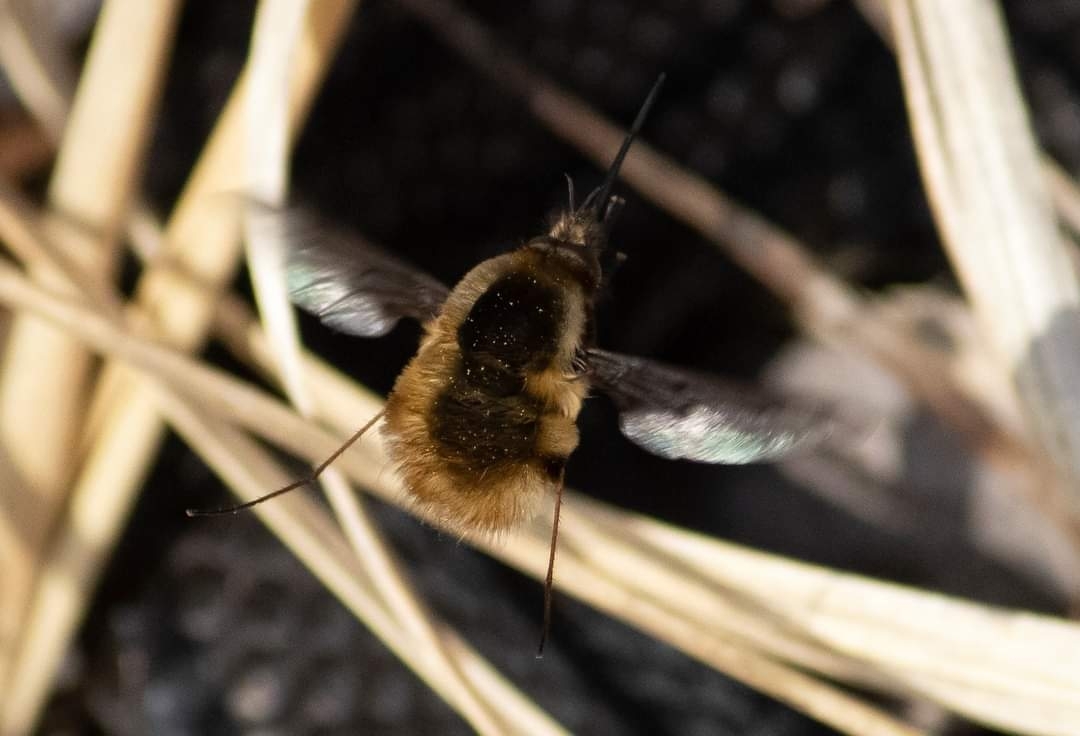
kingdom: Animalia
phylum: Arthropoda
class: Insecta
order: Diptera
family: Bombyliidae
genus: Bombylius
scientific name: Bombylius major
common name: Bee fly
